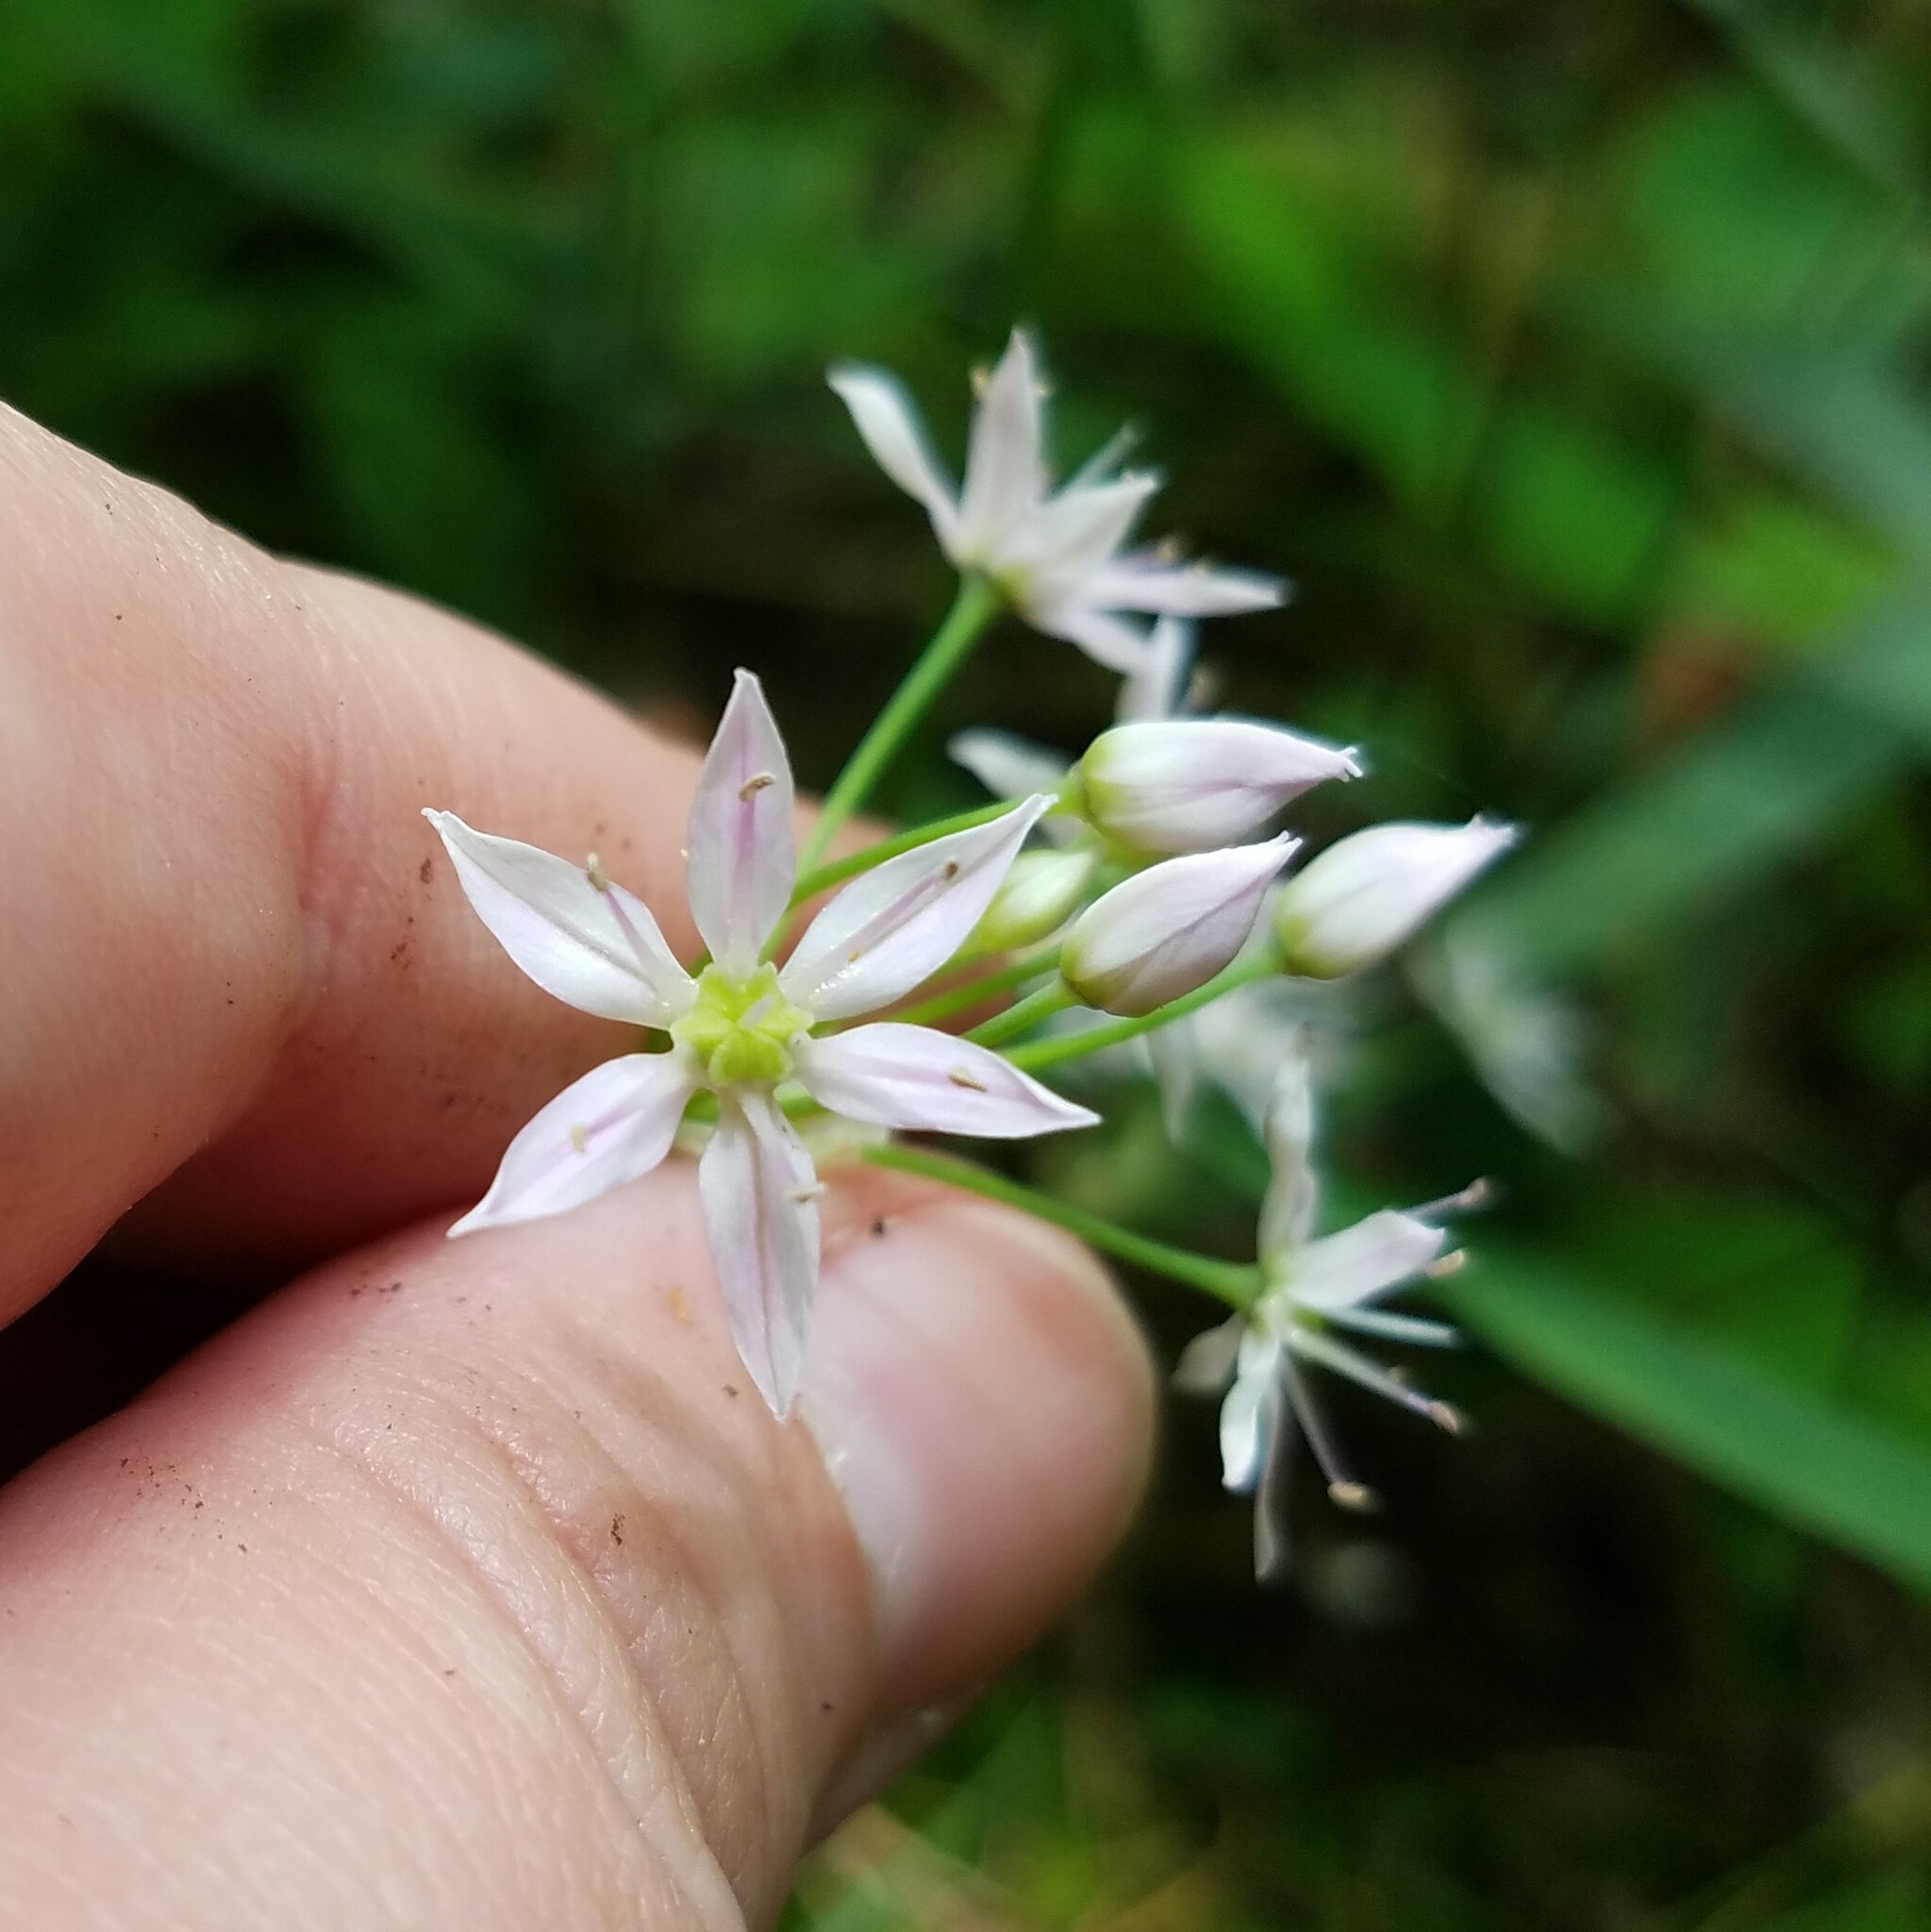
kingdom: Plantae
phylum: Tracheophyta
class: Liliopsida
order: Asparagales
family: Amaryllidaceae
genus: Allium
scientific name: Allium speculae
